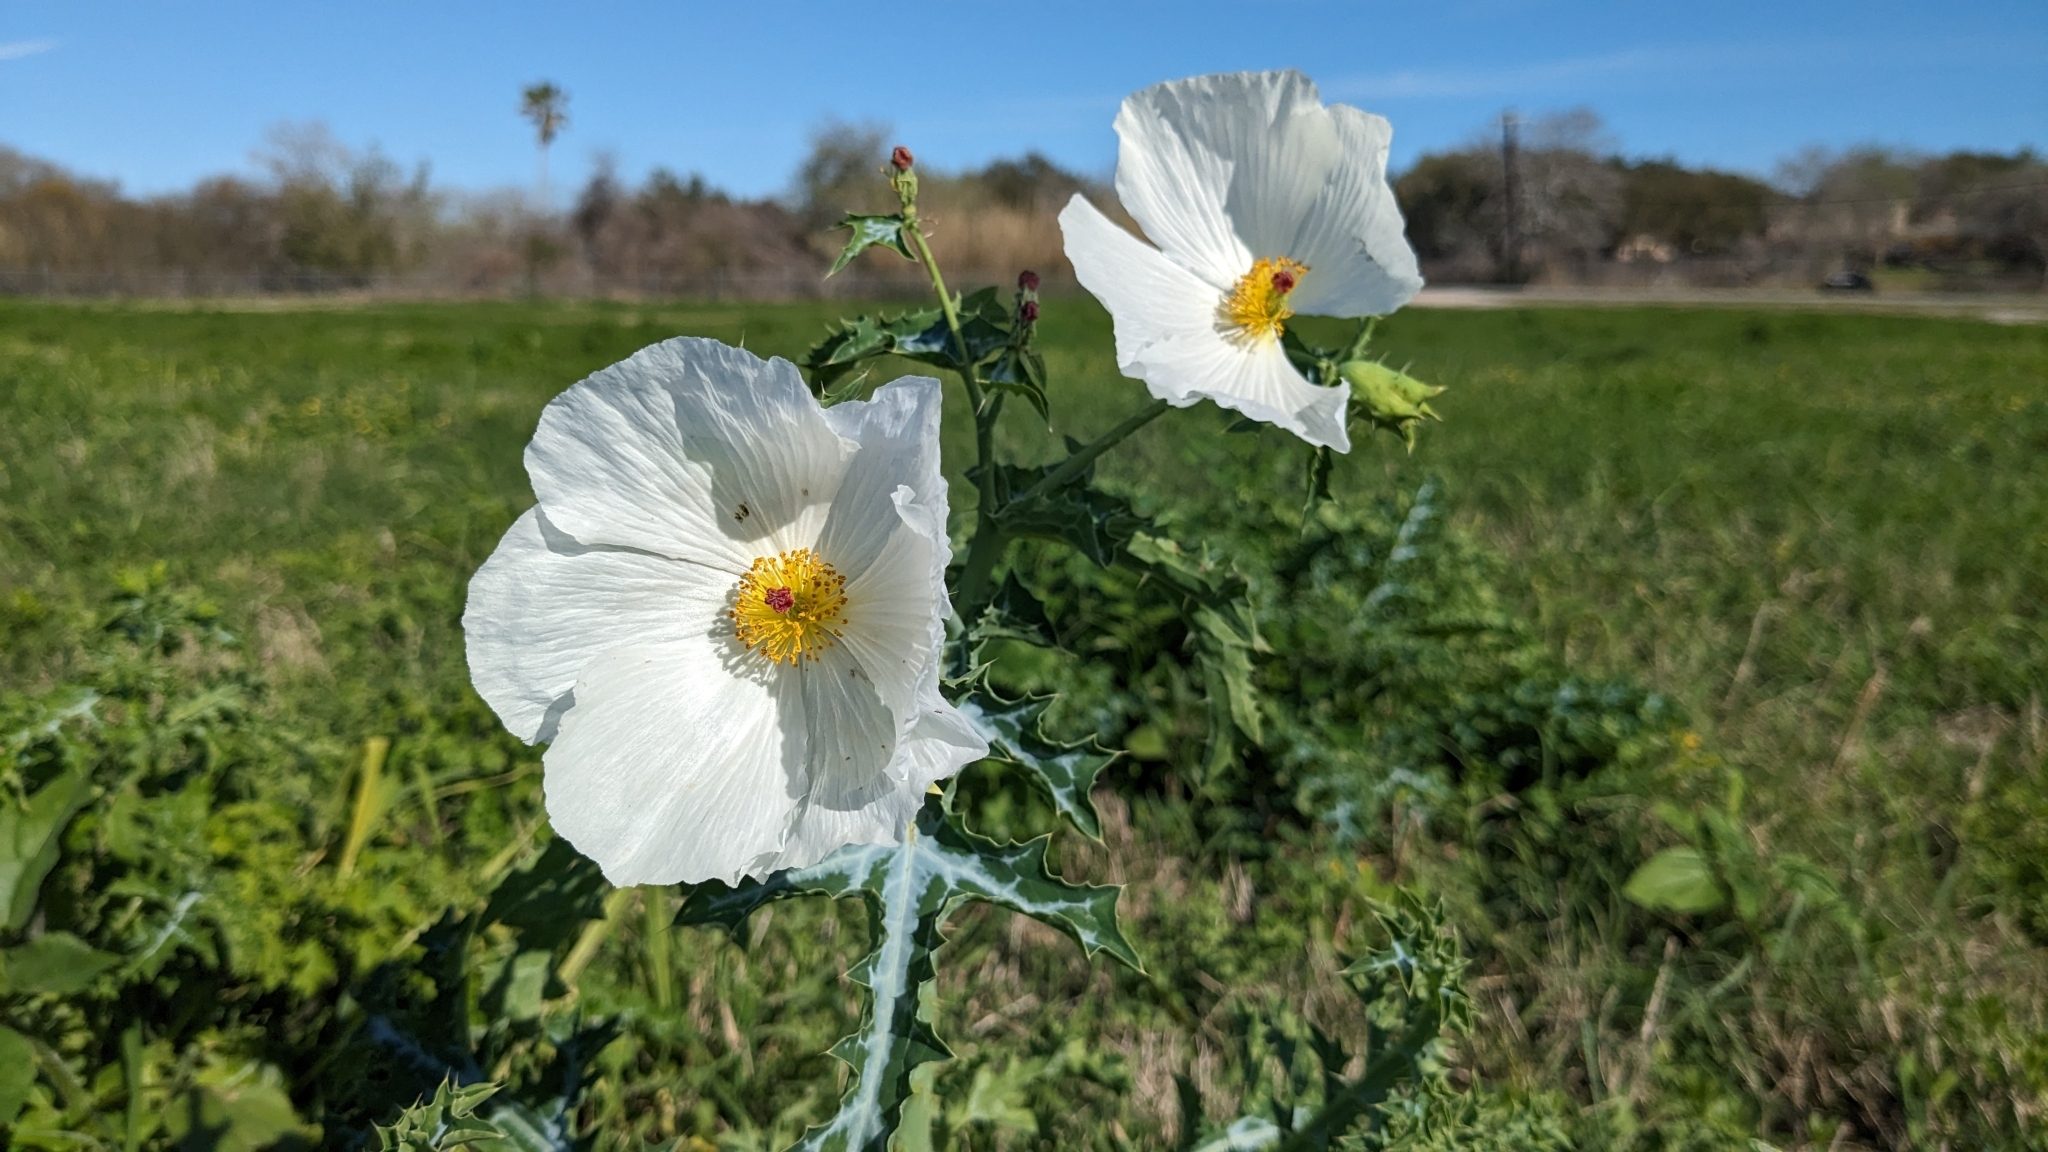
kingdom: Plantae
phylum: Tracheophyta
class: Magnoliopsida
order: Ranunculales
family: Papaveraceae
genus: Argemone
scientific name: Argemone albiflora
